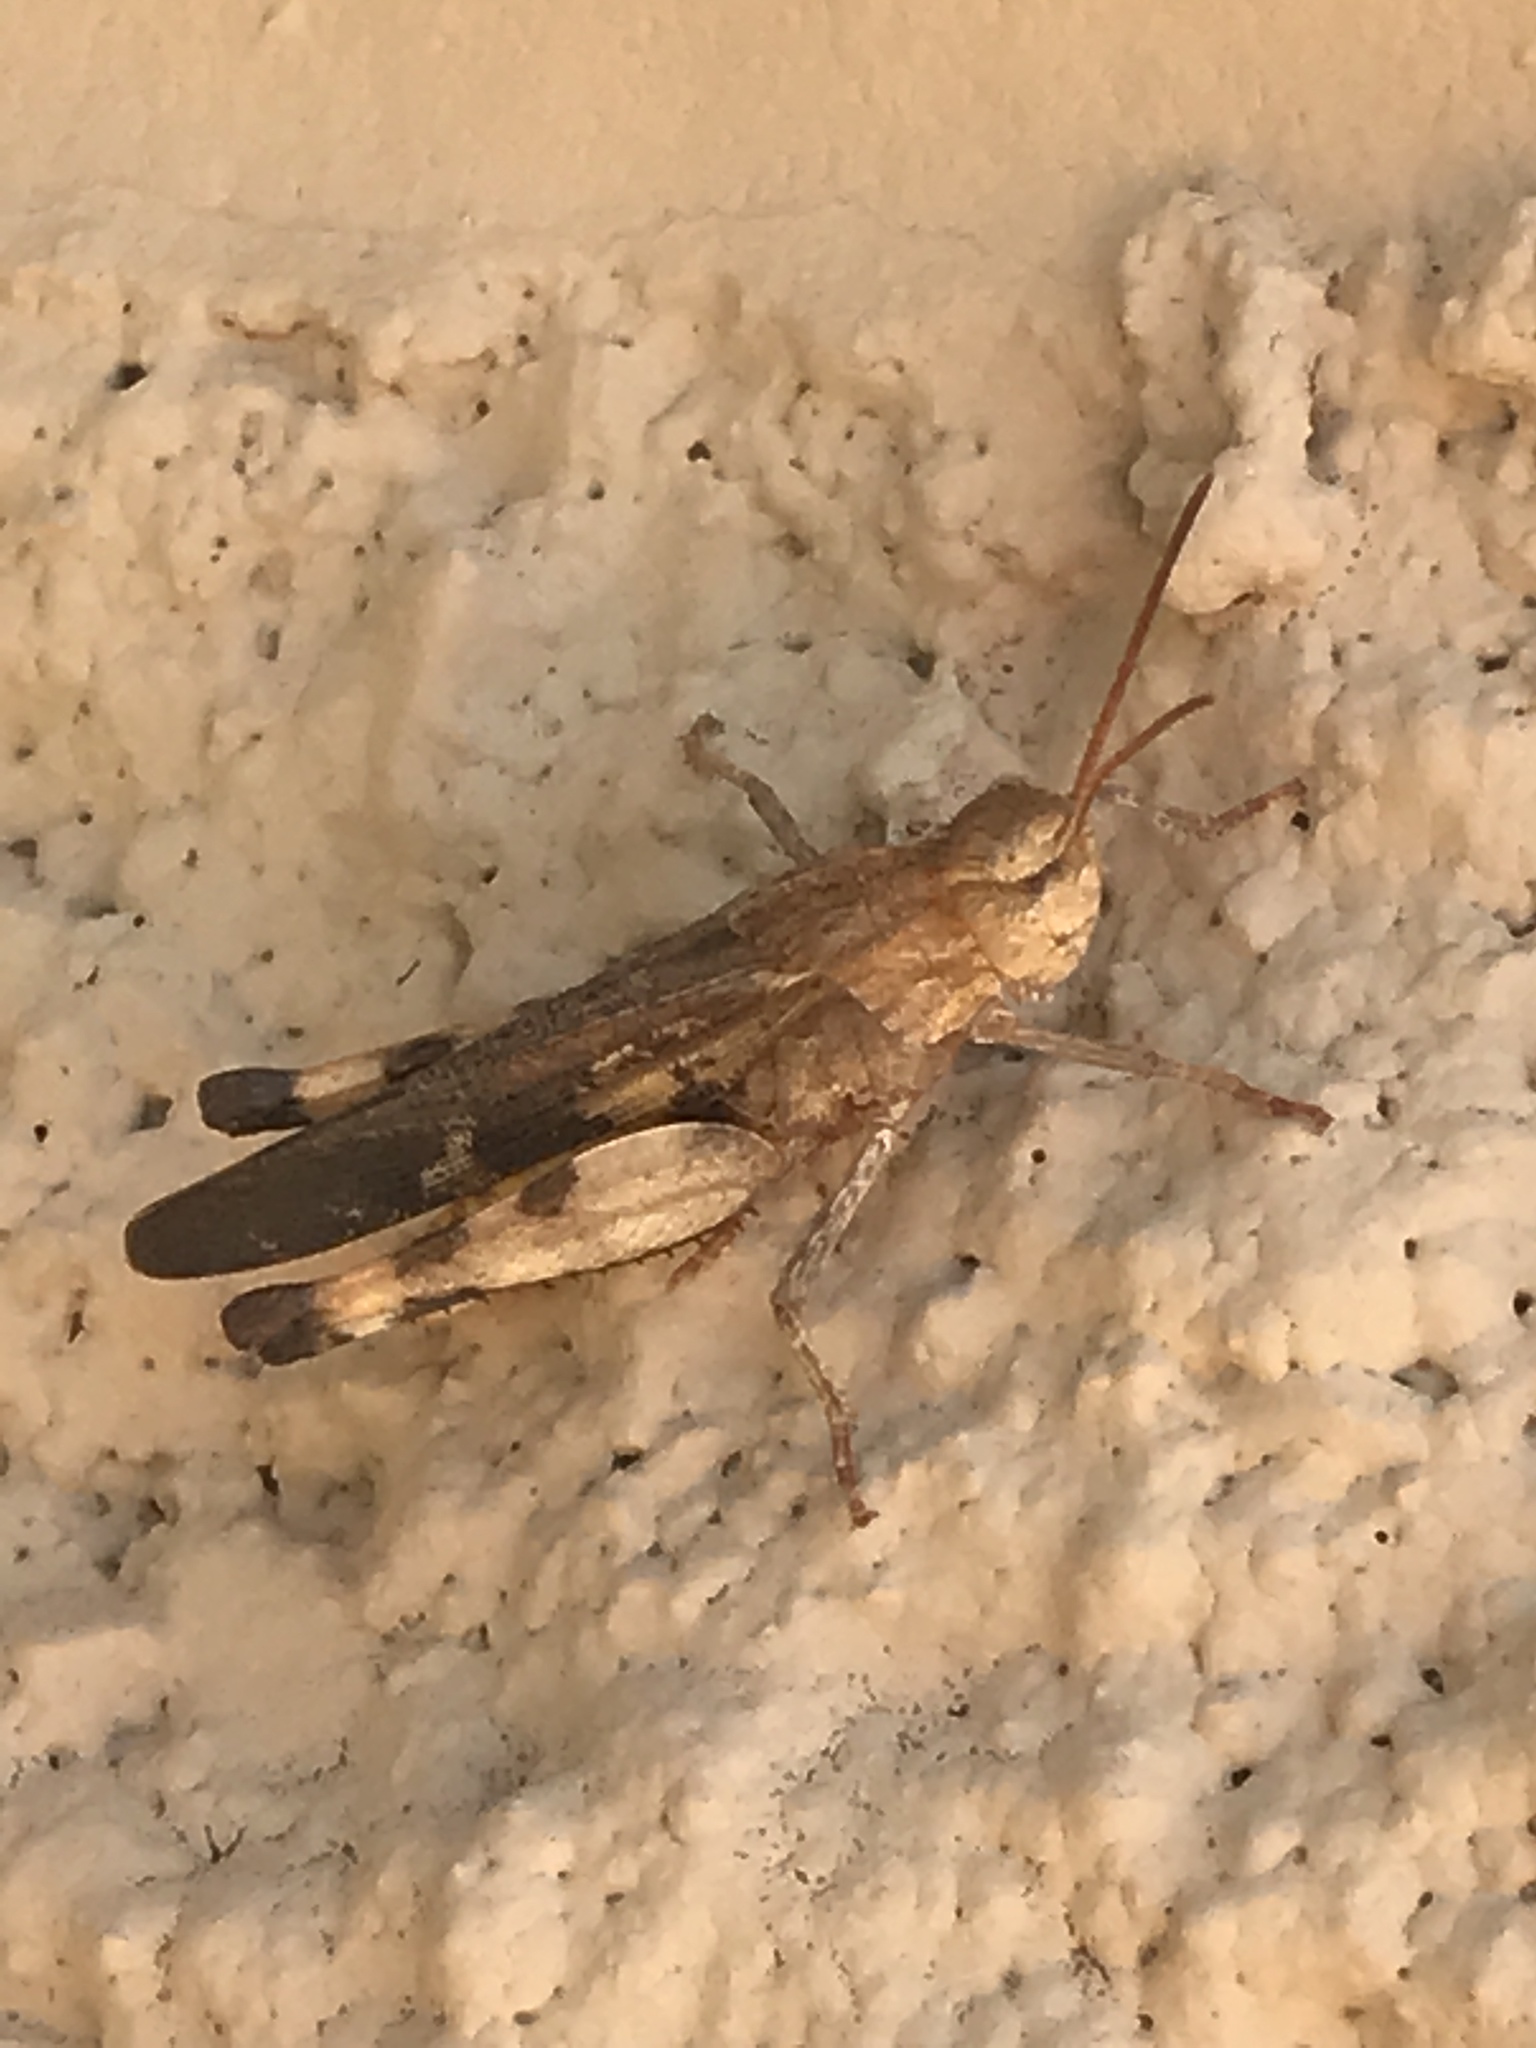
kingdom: Animalia
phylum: Arthropoda
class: Insecta
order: Orthoptera
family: Acrididae
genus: Chortophaga
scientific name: Chortophaga viridifasciata
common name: Green-striped grasshopper
